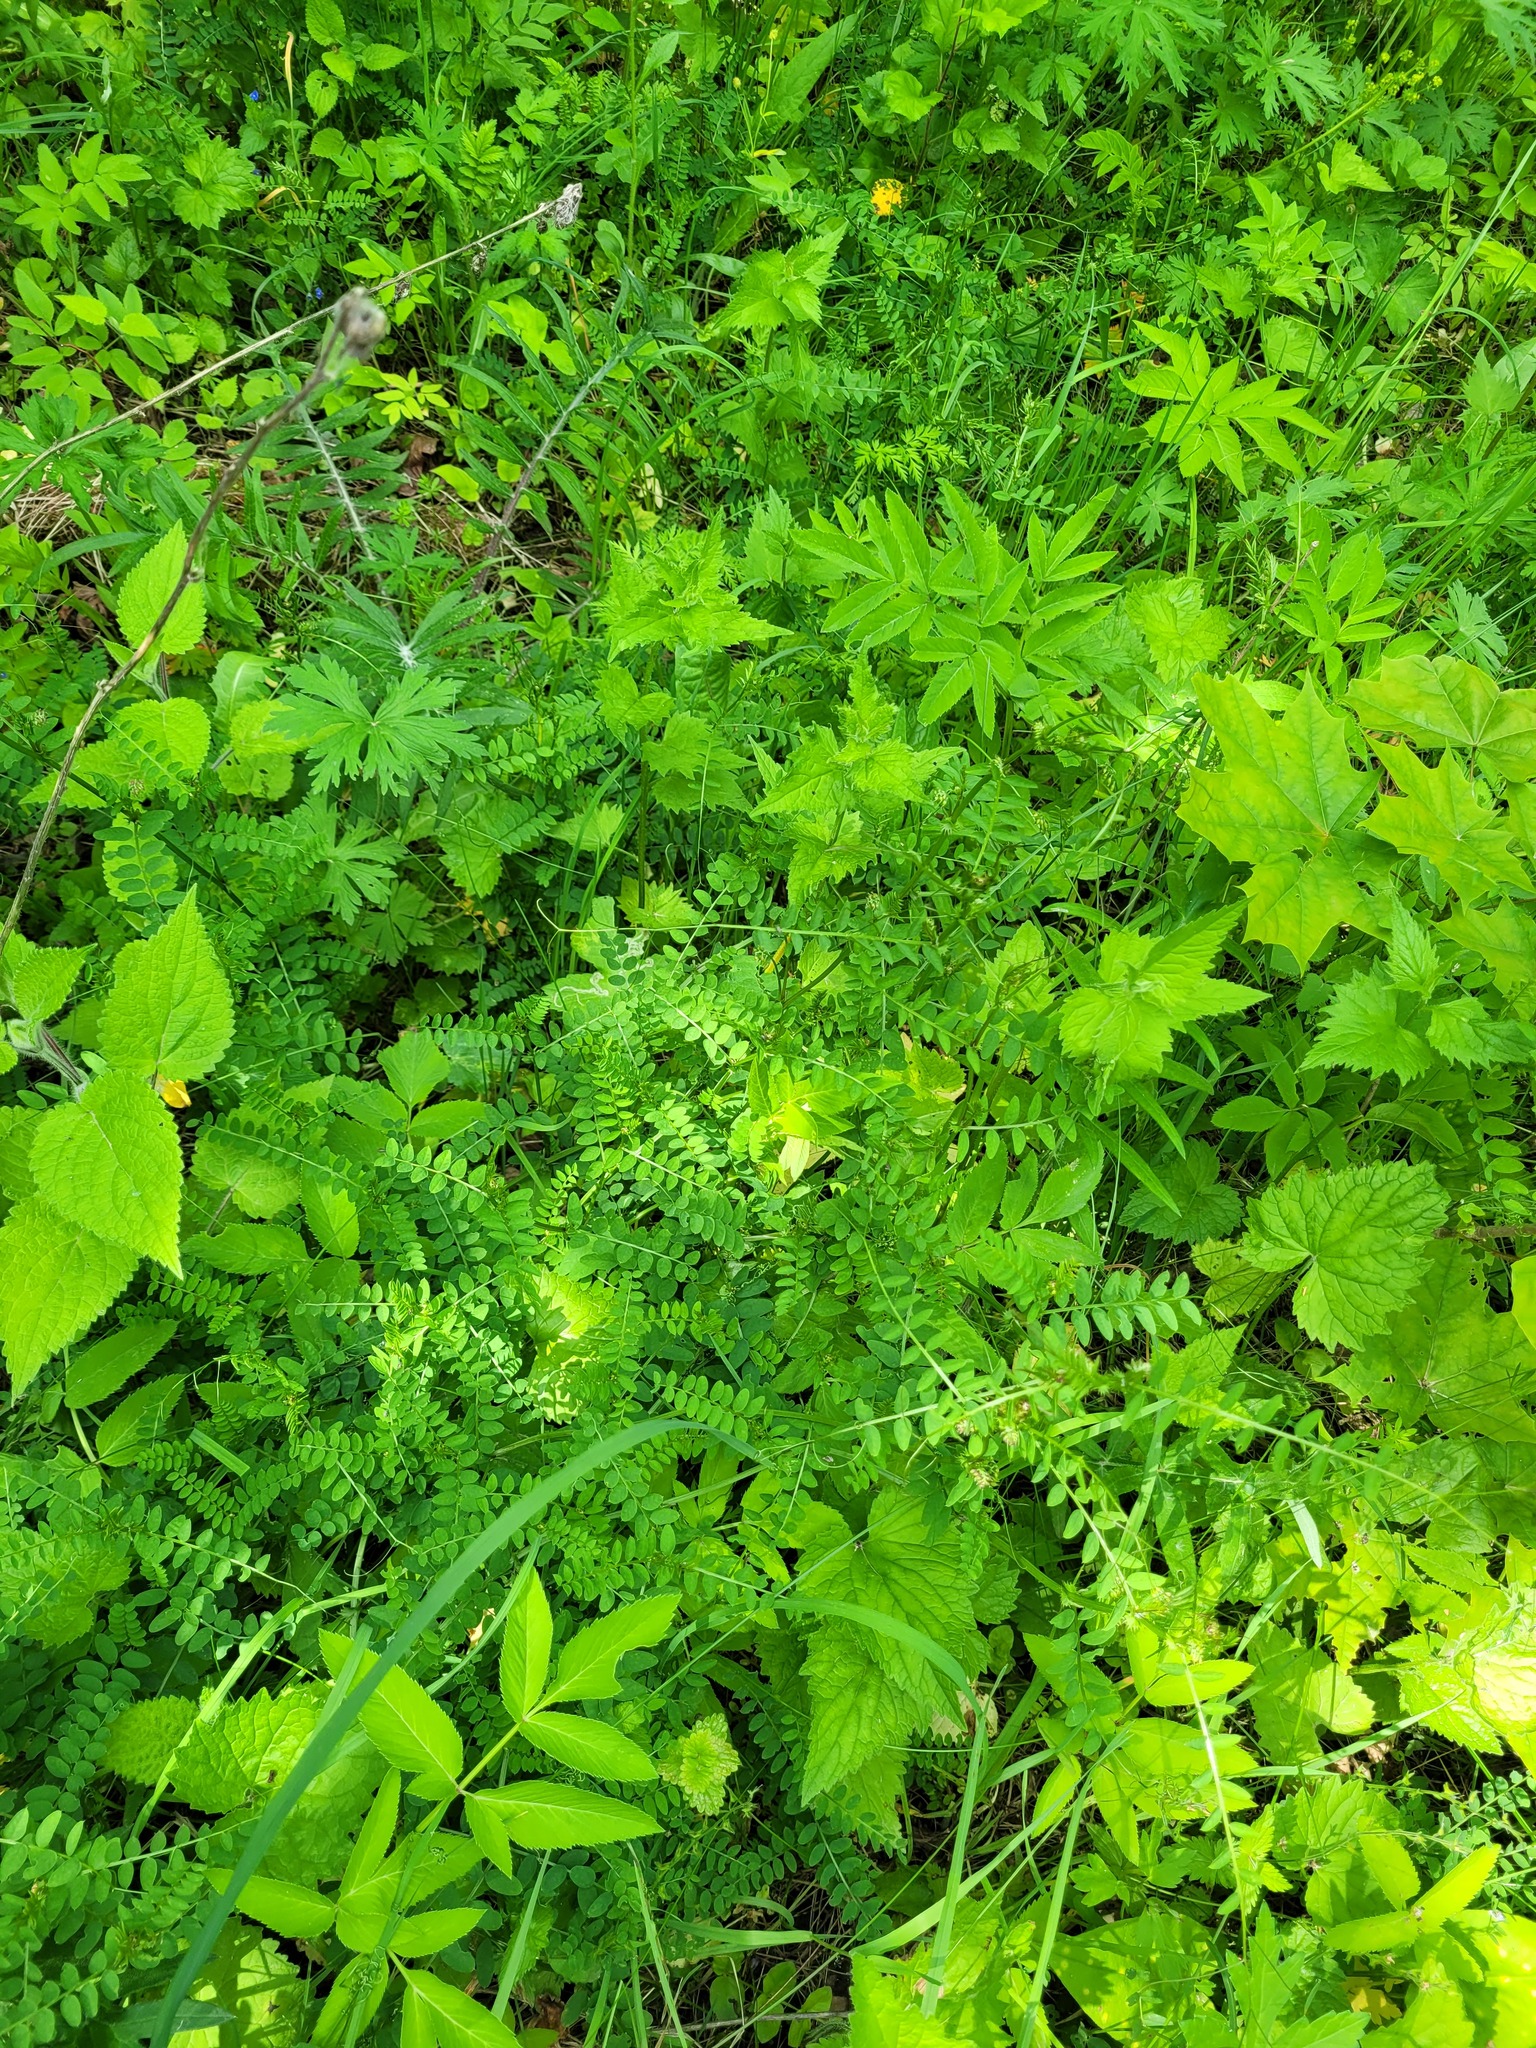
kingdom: Plantae
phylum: Tracheophyta
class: Magnoliopsida
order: Fabales
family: Fabaceae
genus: Vicia
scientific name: Vicia sylvatica
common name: Wood vetch
